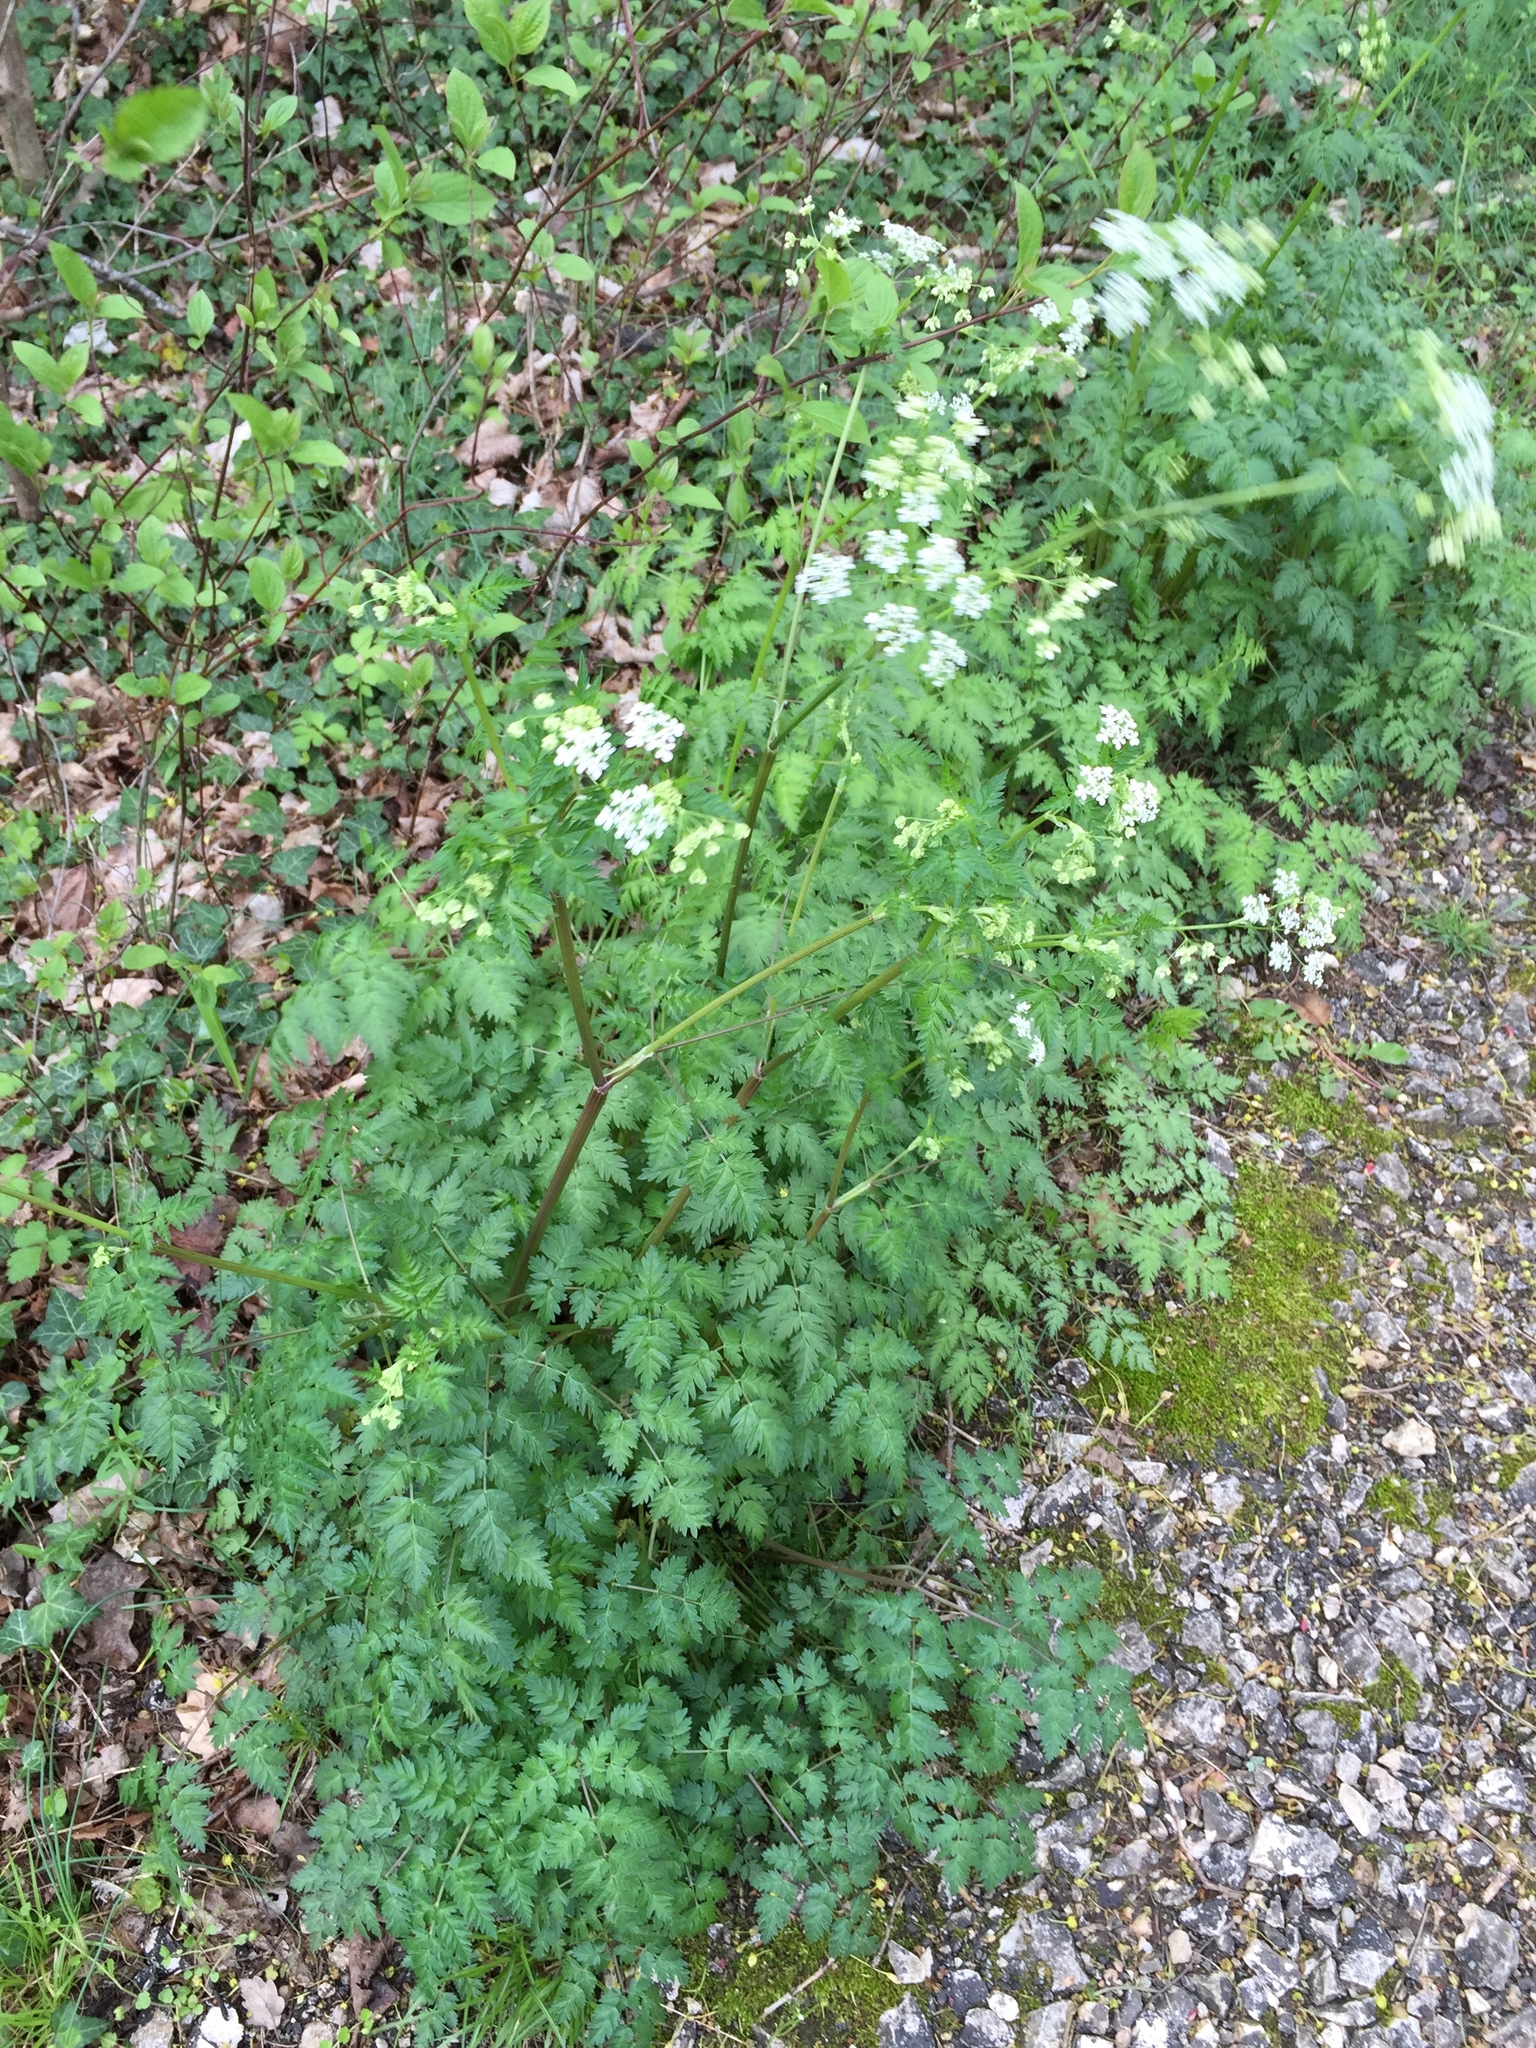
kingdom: Plantae
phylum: Tracheophyta
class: Magnoliopsida
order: Apiales
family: Apiaceae
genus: Anthriscus
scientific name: Anthriscus sylvestris
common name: Cow parsley
